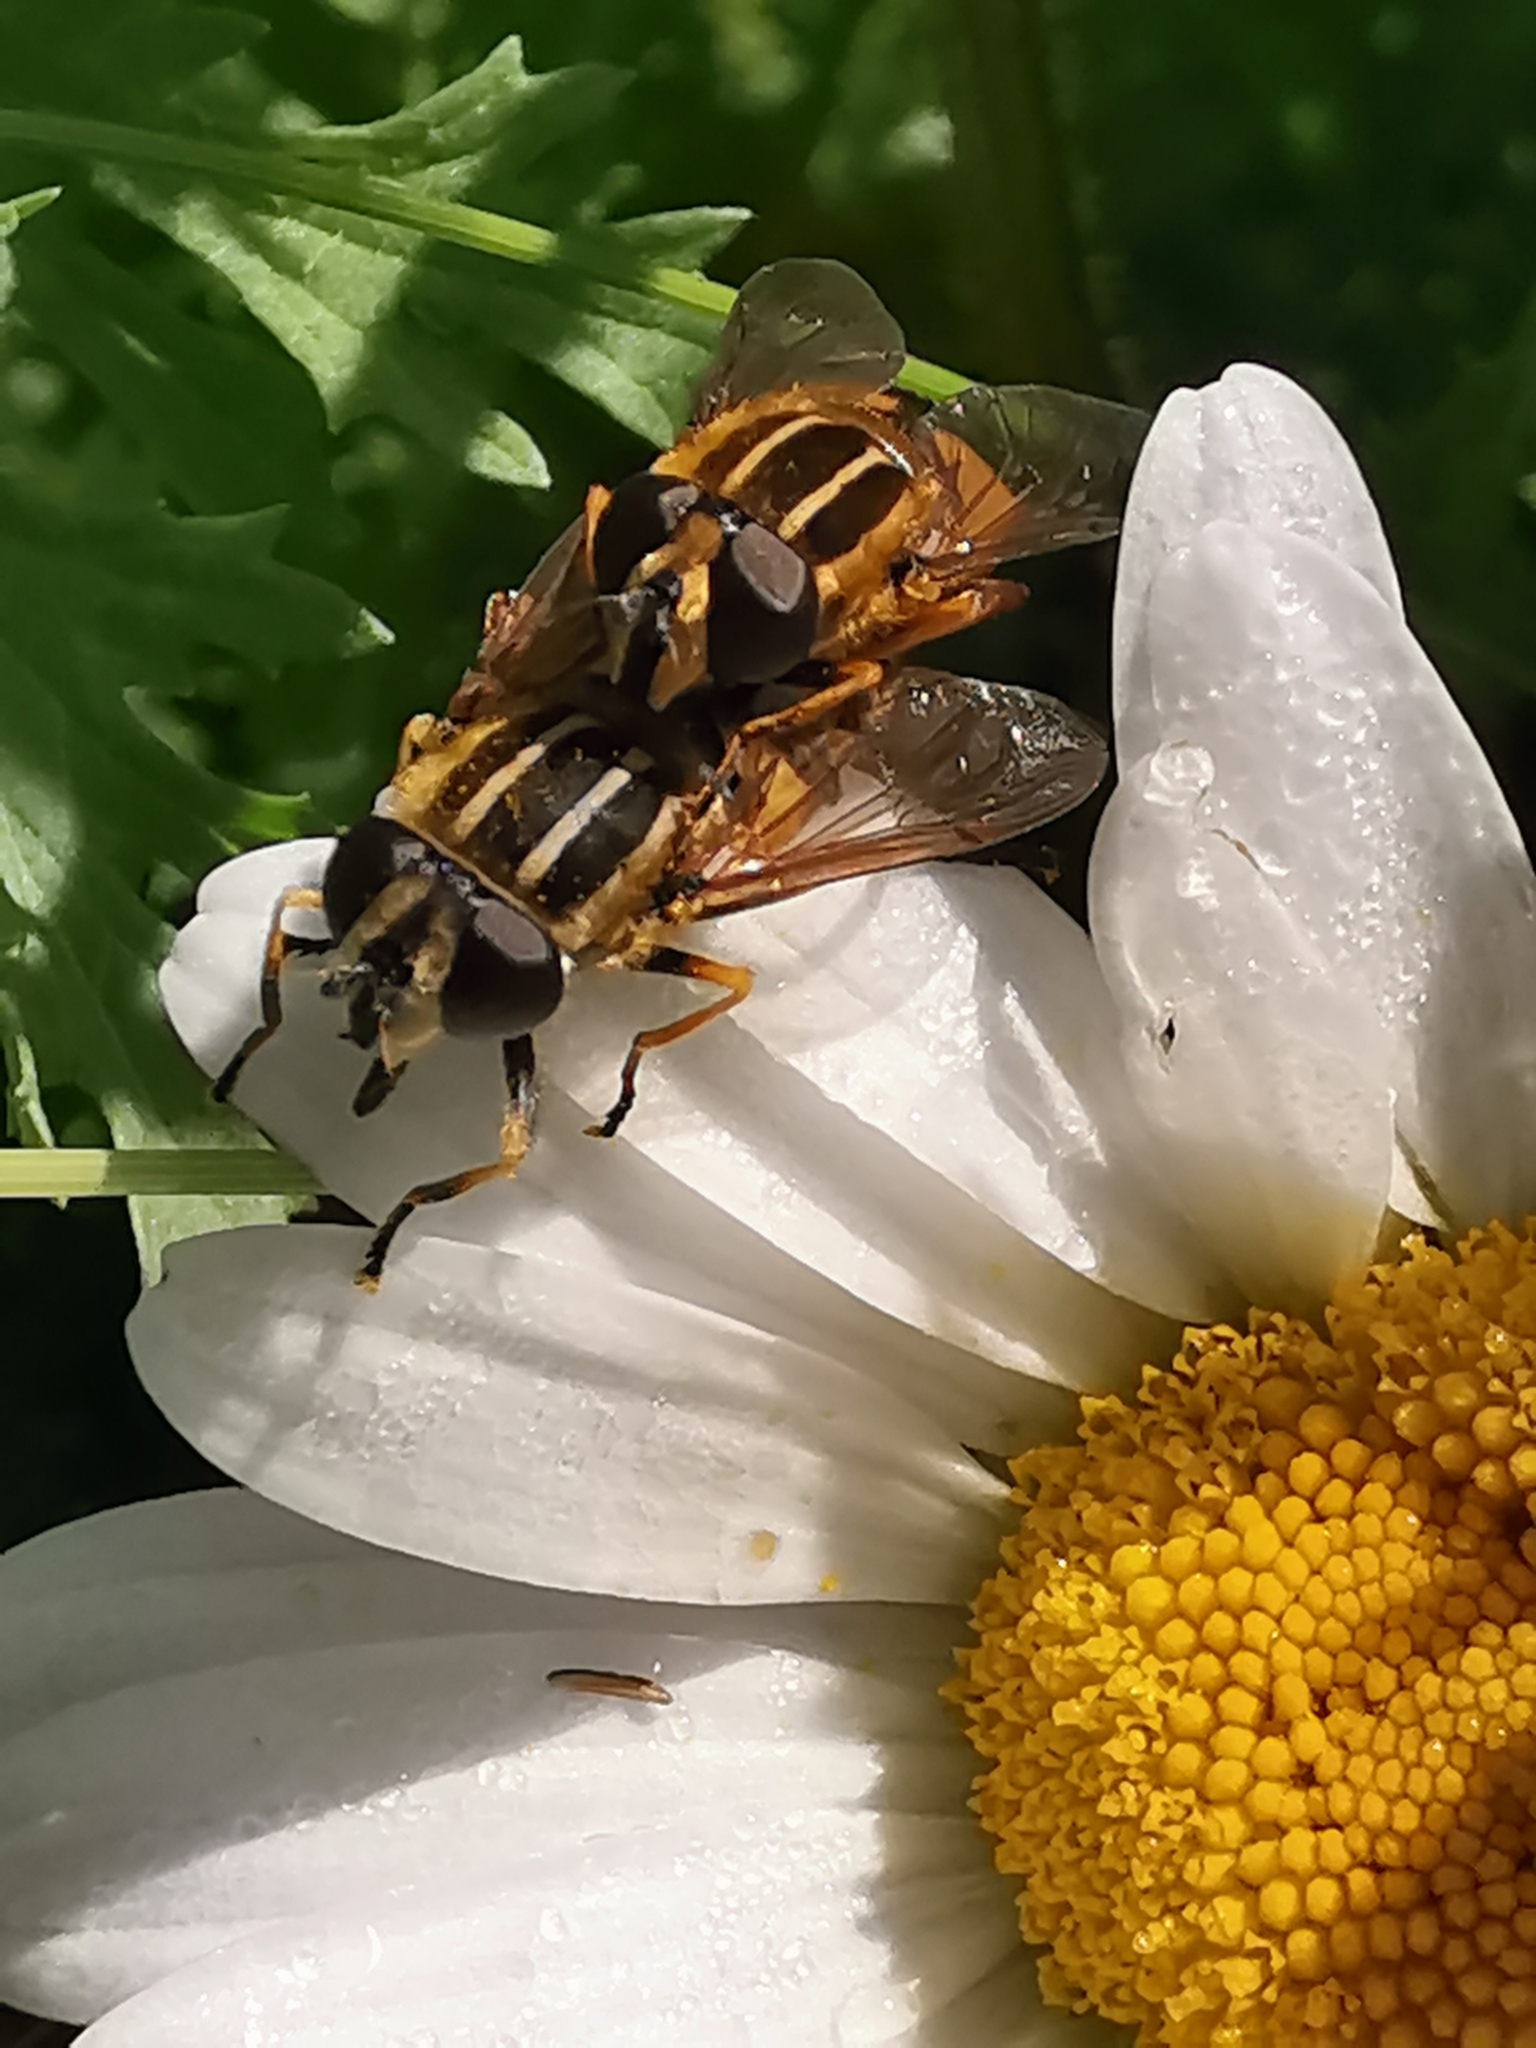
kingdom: Animalia
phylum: Arthropoda
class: Insecta
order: Diptera
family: Syrphidae
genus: Helophilus
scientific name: Helophilus pendulus
